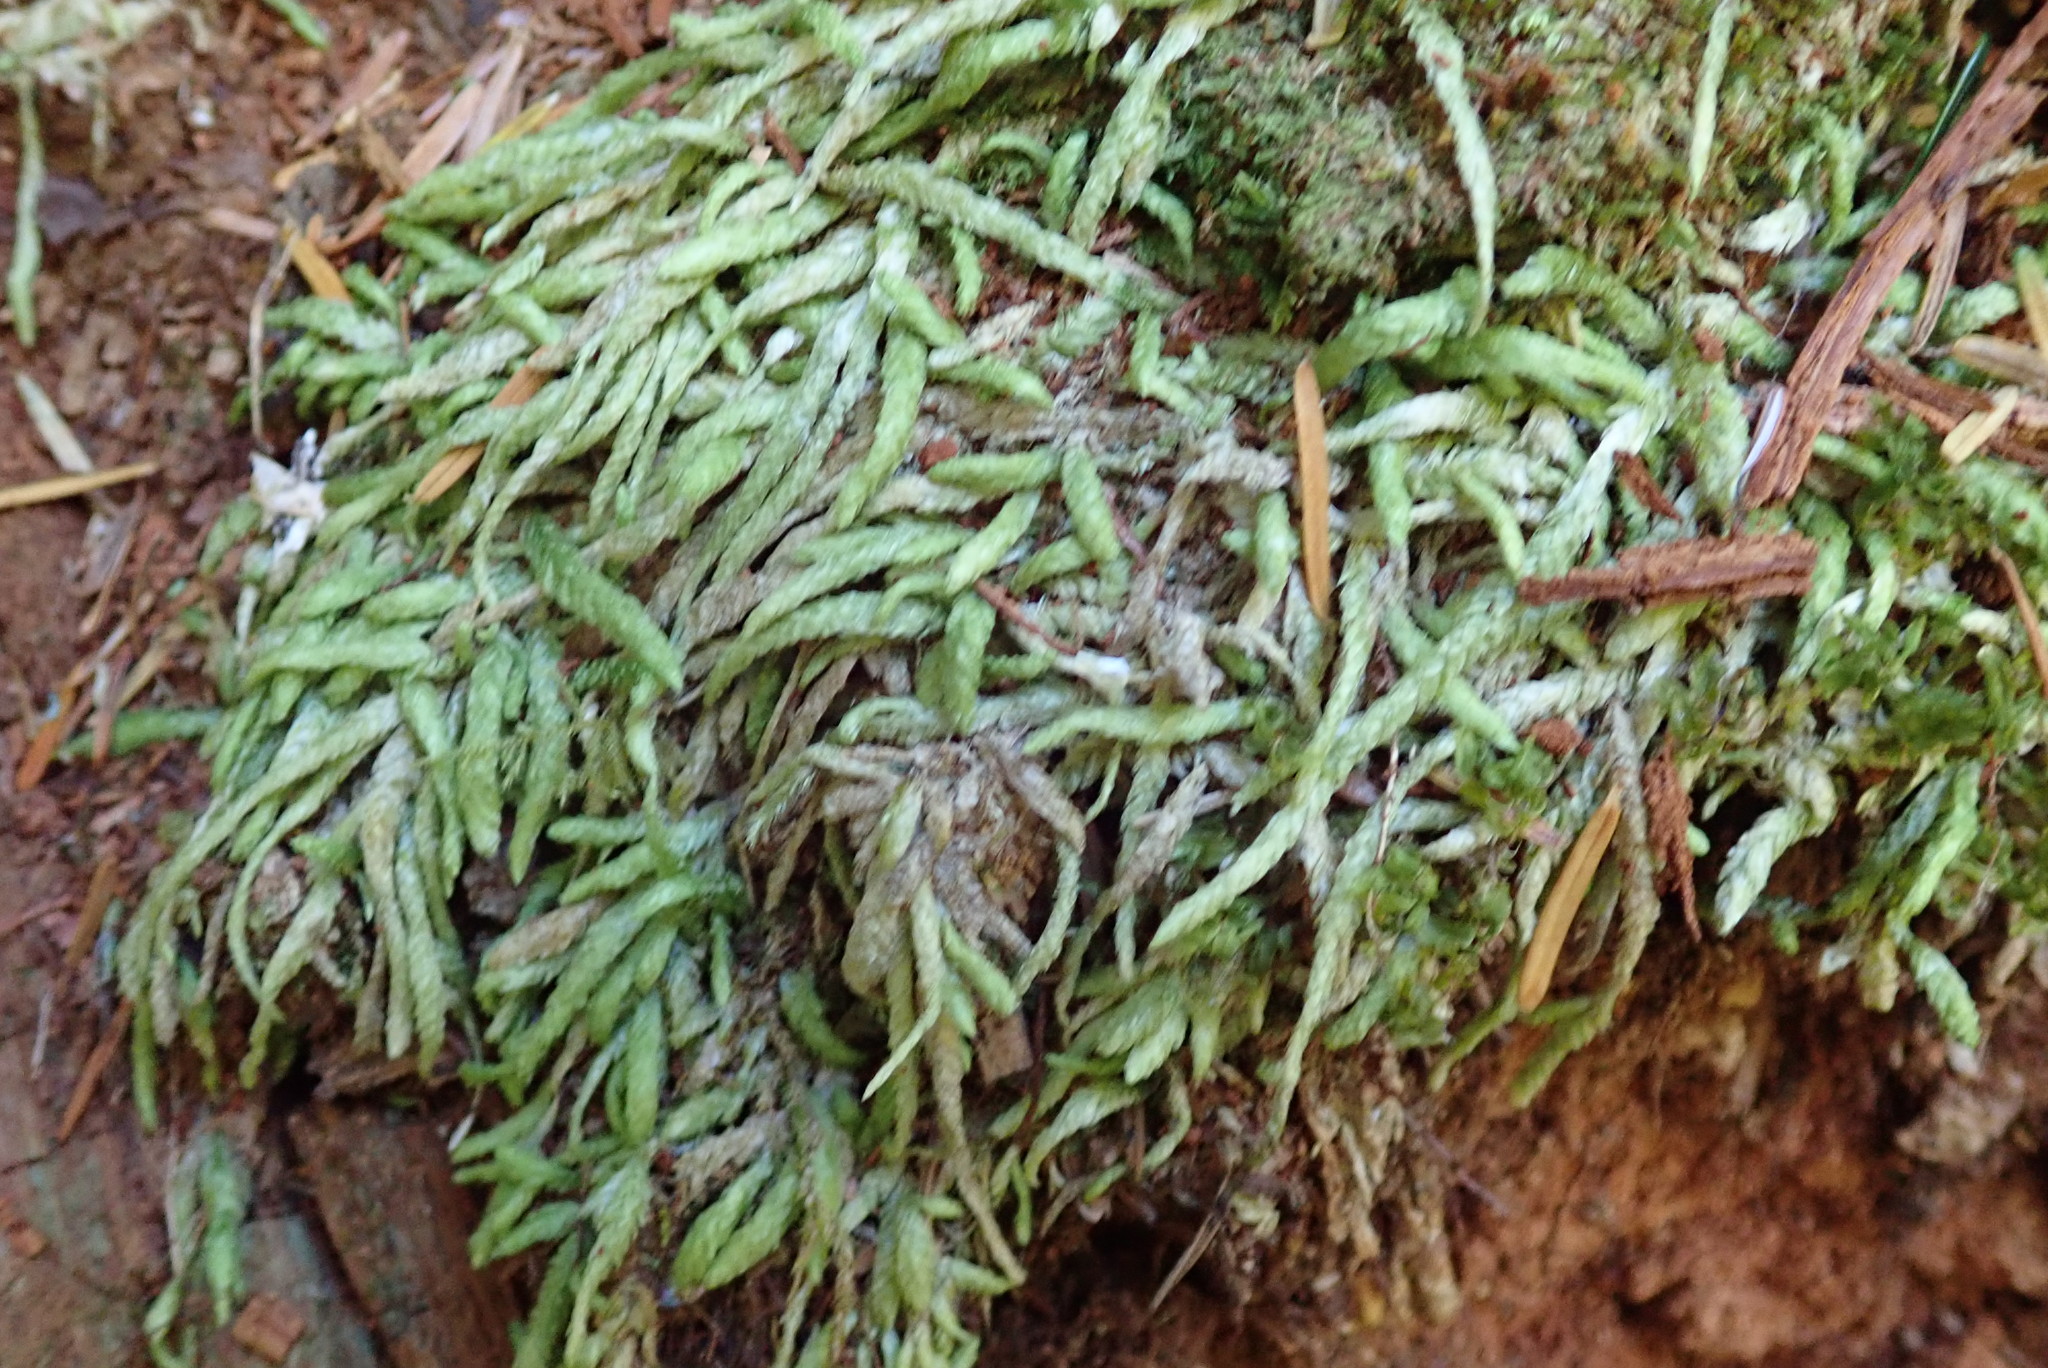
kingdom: Plantae
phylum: Bryophyta
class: Bryopsida
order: Hypnales
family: Plagiotheciaceae
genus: Plagiothecium
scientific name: Plagiothecium undulatum
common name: Waved silk-moss
